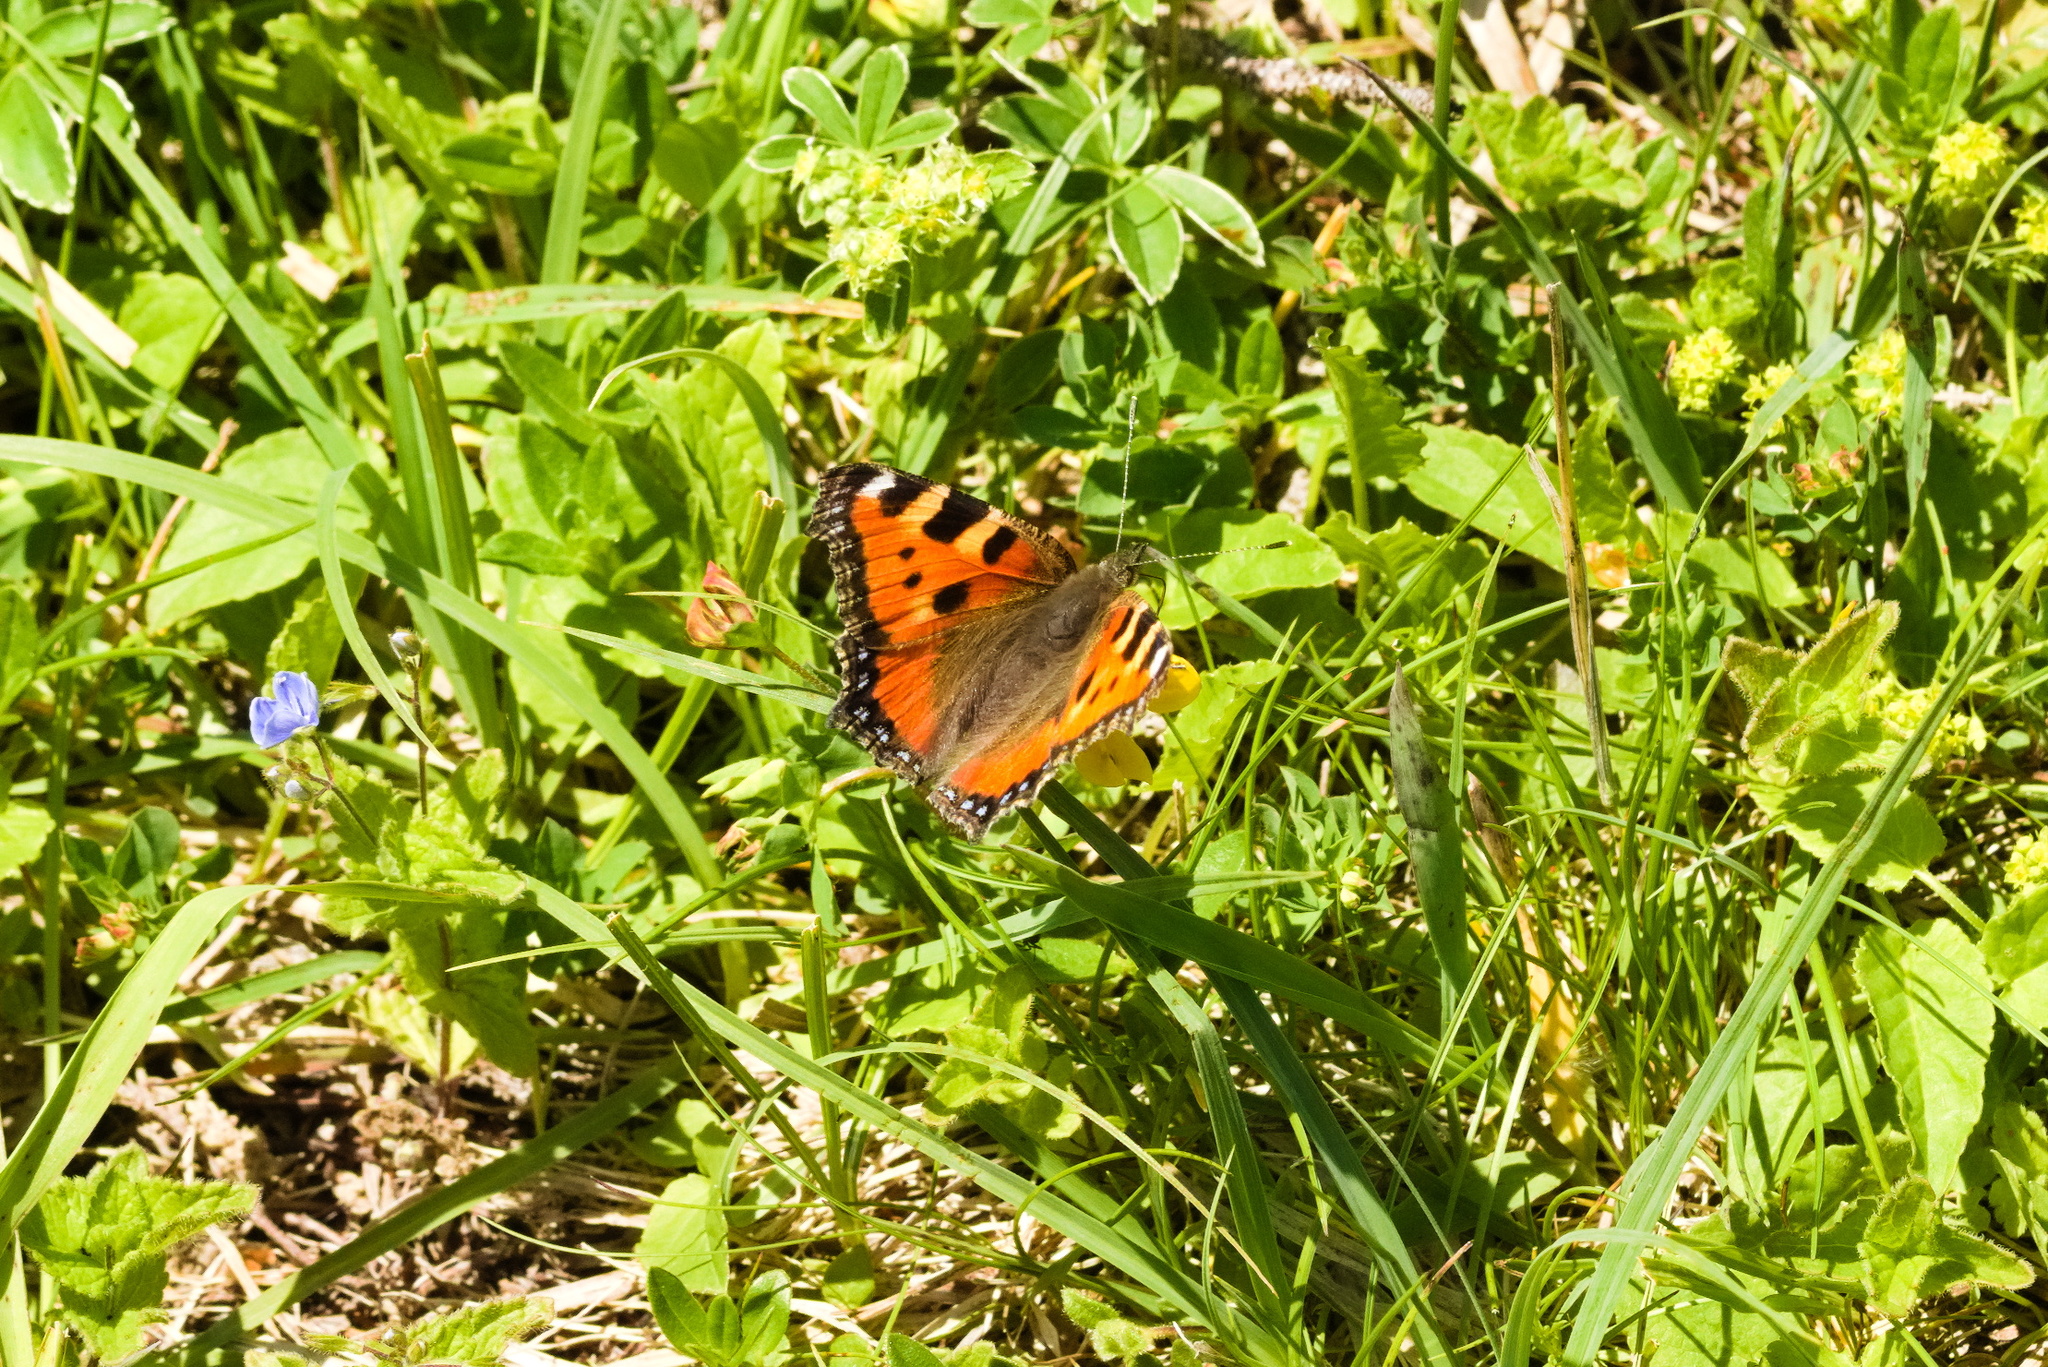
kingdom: Animalia
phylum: Arthropoda
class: Insecta
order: Lepidoptera
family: Nymphalidae
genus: Aglais
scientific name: Aglais urticae
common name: Small tortoiseshell
